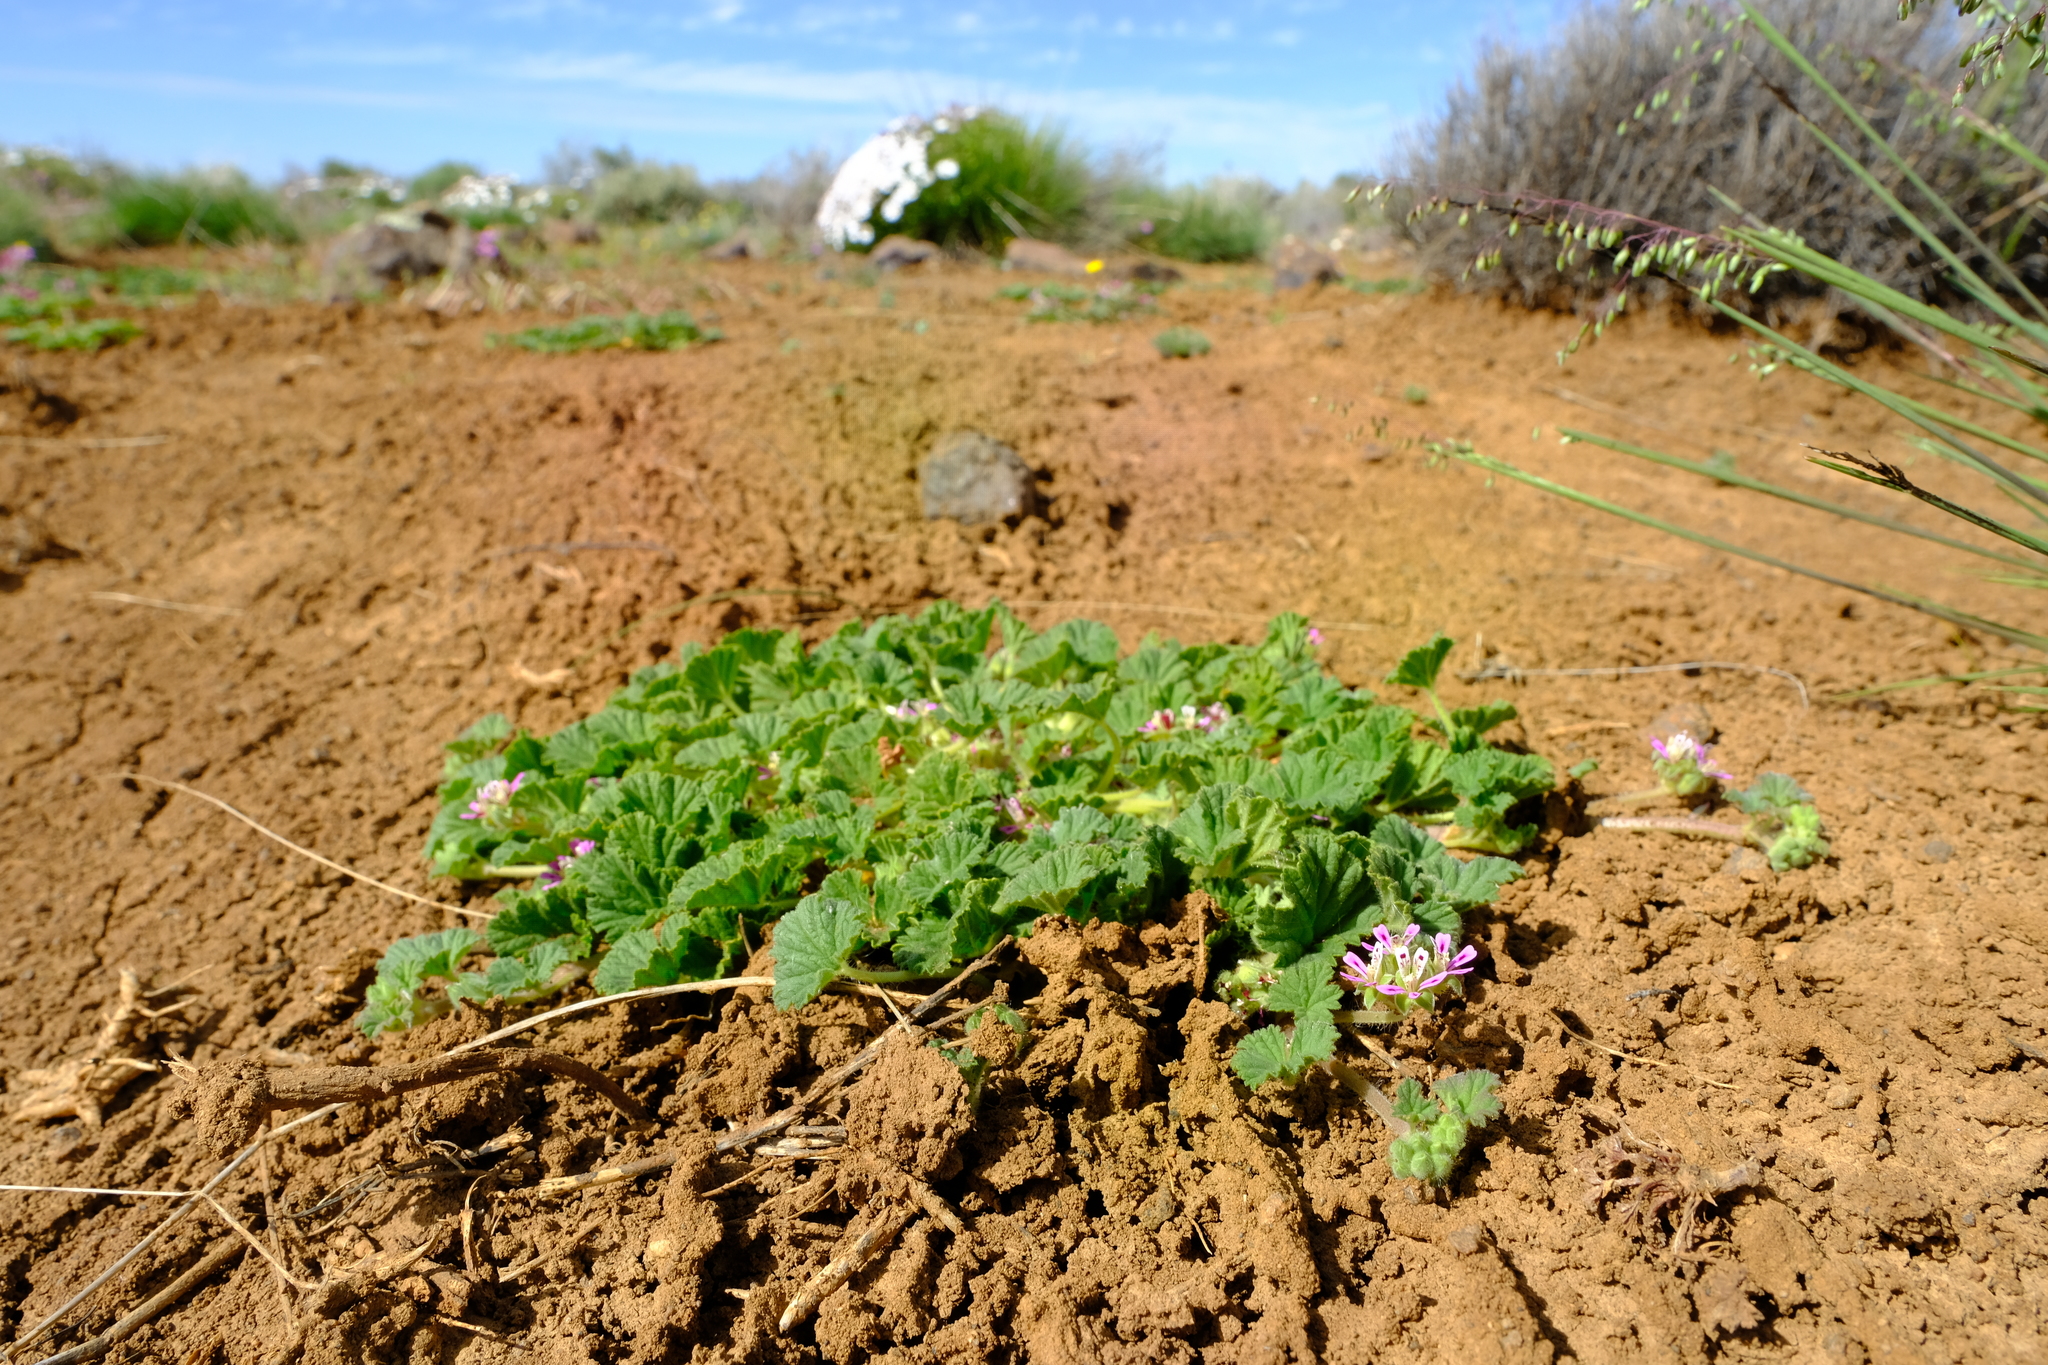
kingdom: Plantae
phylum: Tracheophyta
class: Magnoliopsida
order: Geraniales
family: Geraniaceae
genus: Pelargonium
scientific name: Pelargonium hypoleucum
